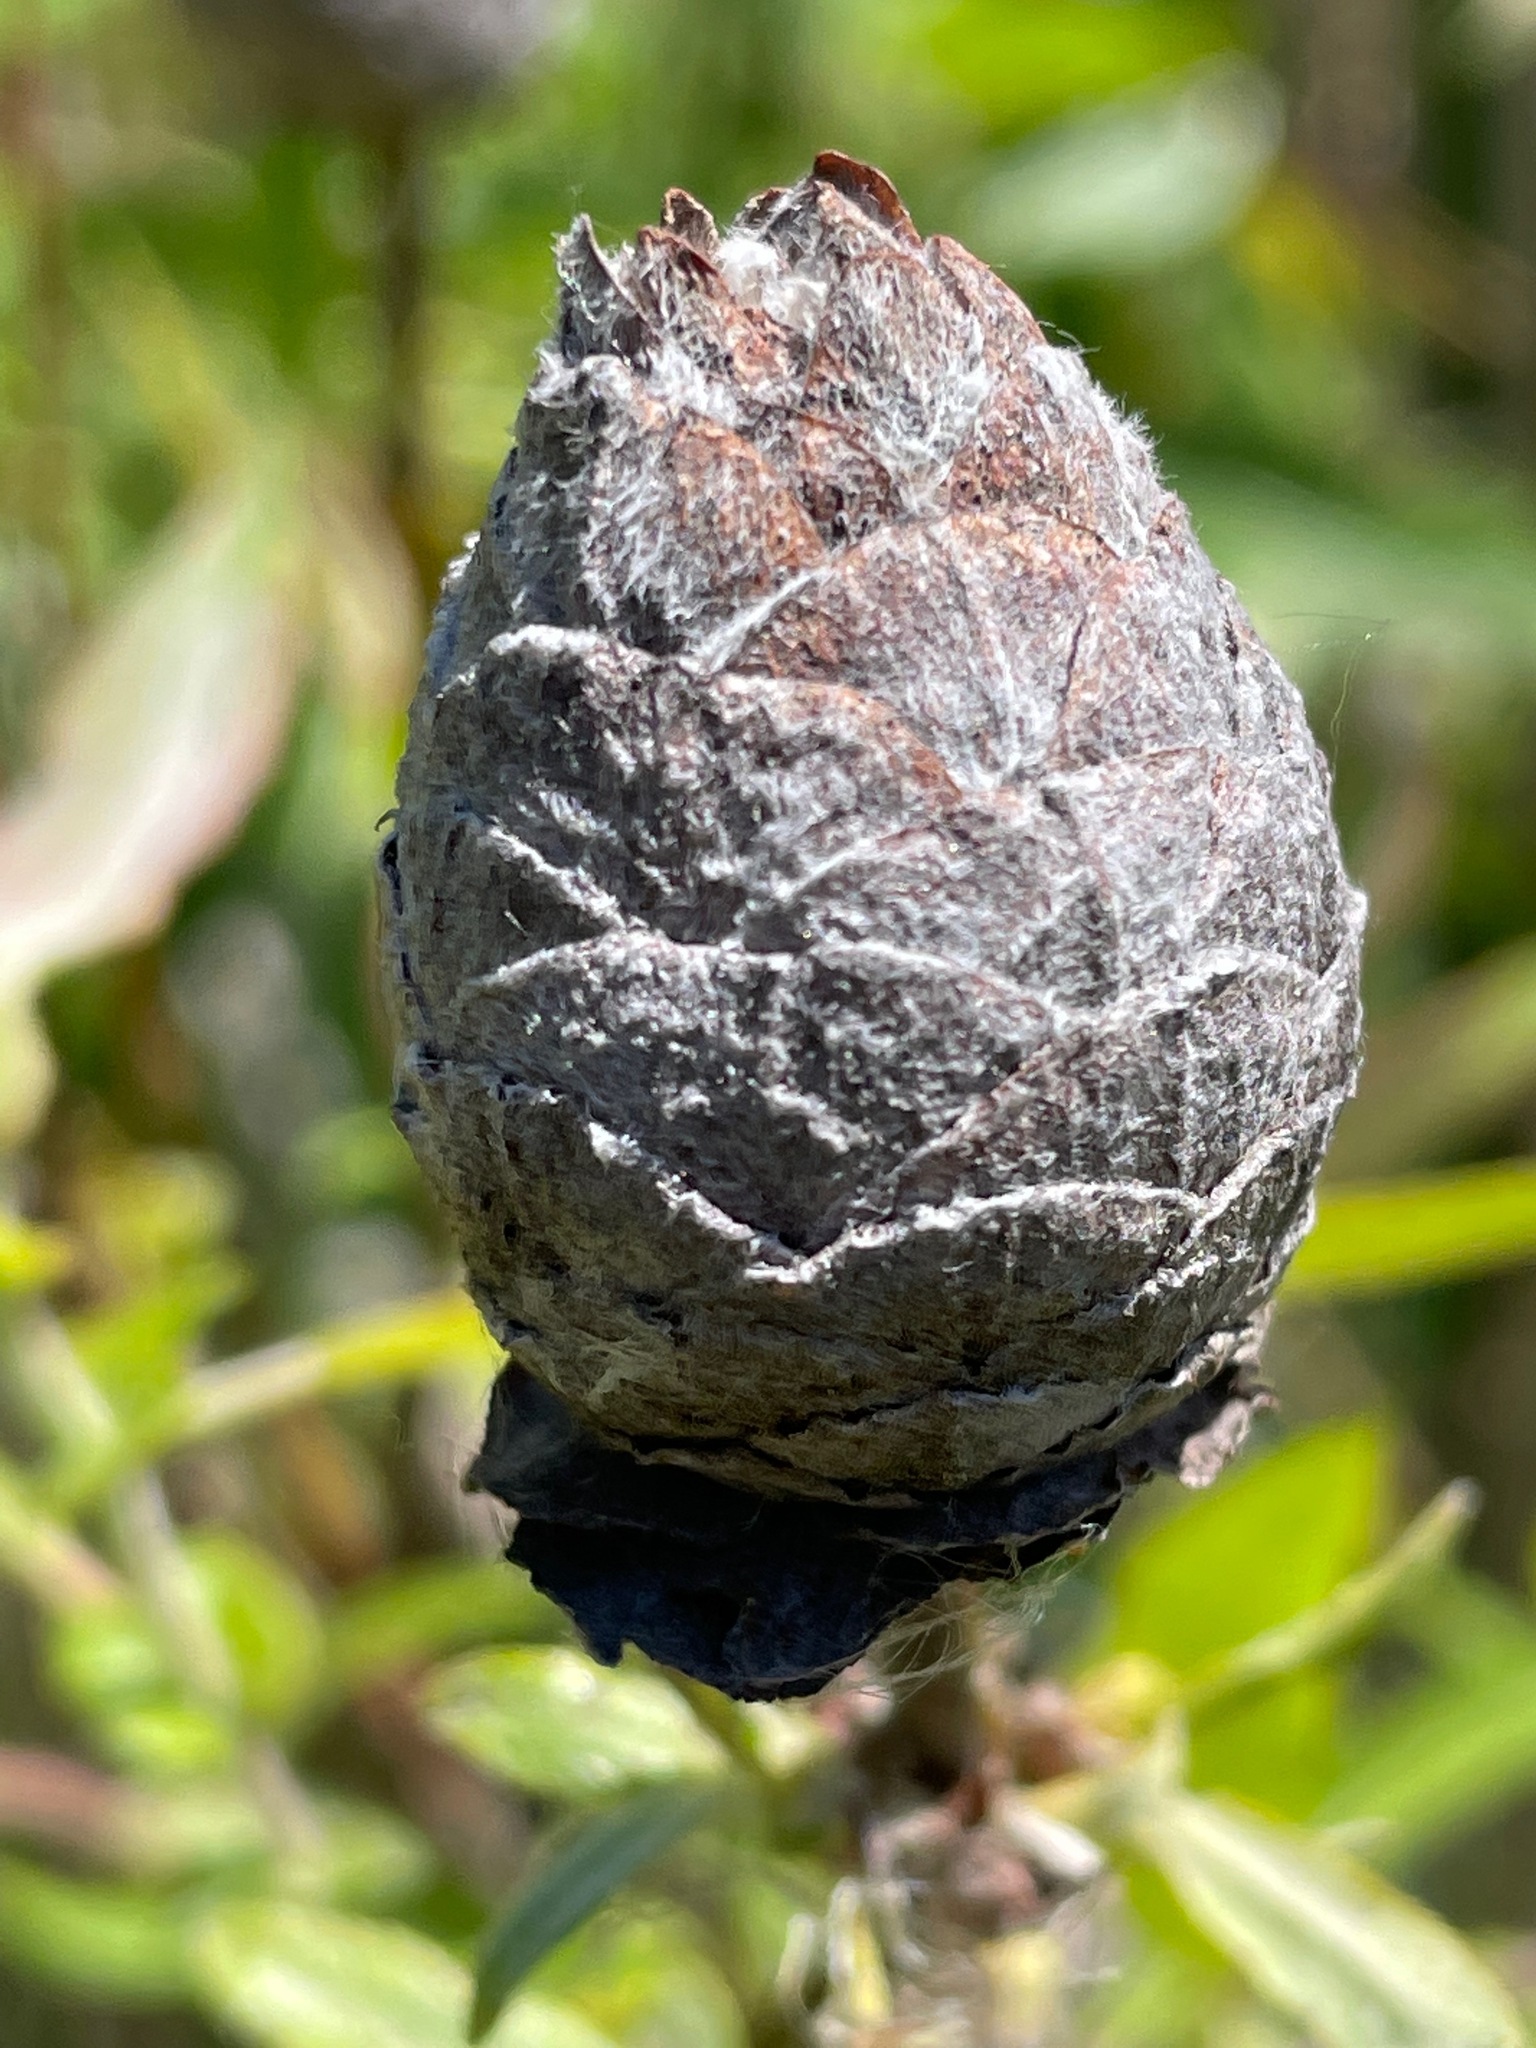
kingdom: Animalia
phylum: Arthropoda
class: Insecta
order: Diptera
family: Cecidomyiidae
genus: Rabdophaga
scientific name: Rabdophaga strobiloides
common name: Willow pinecone gall midge
